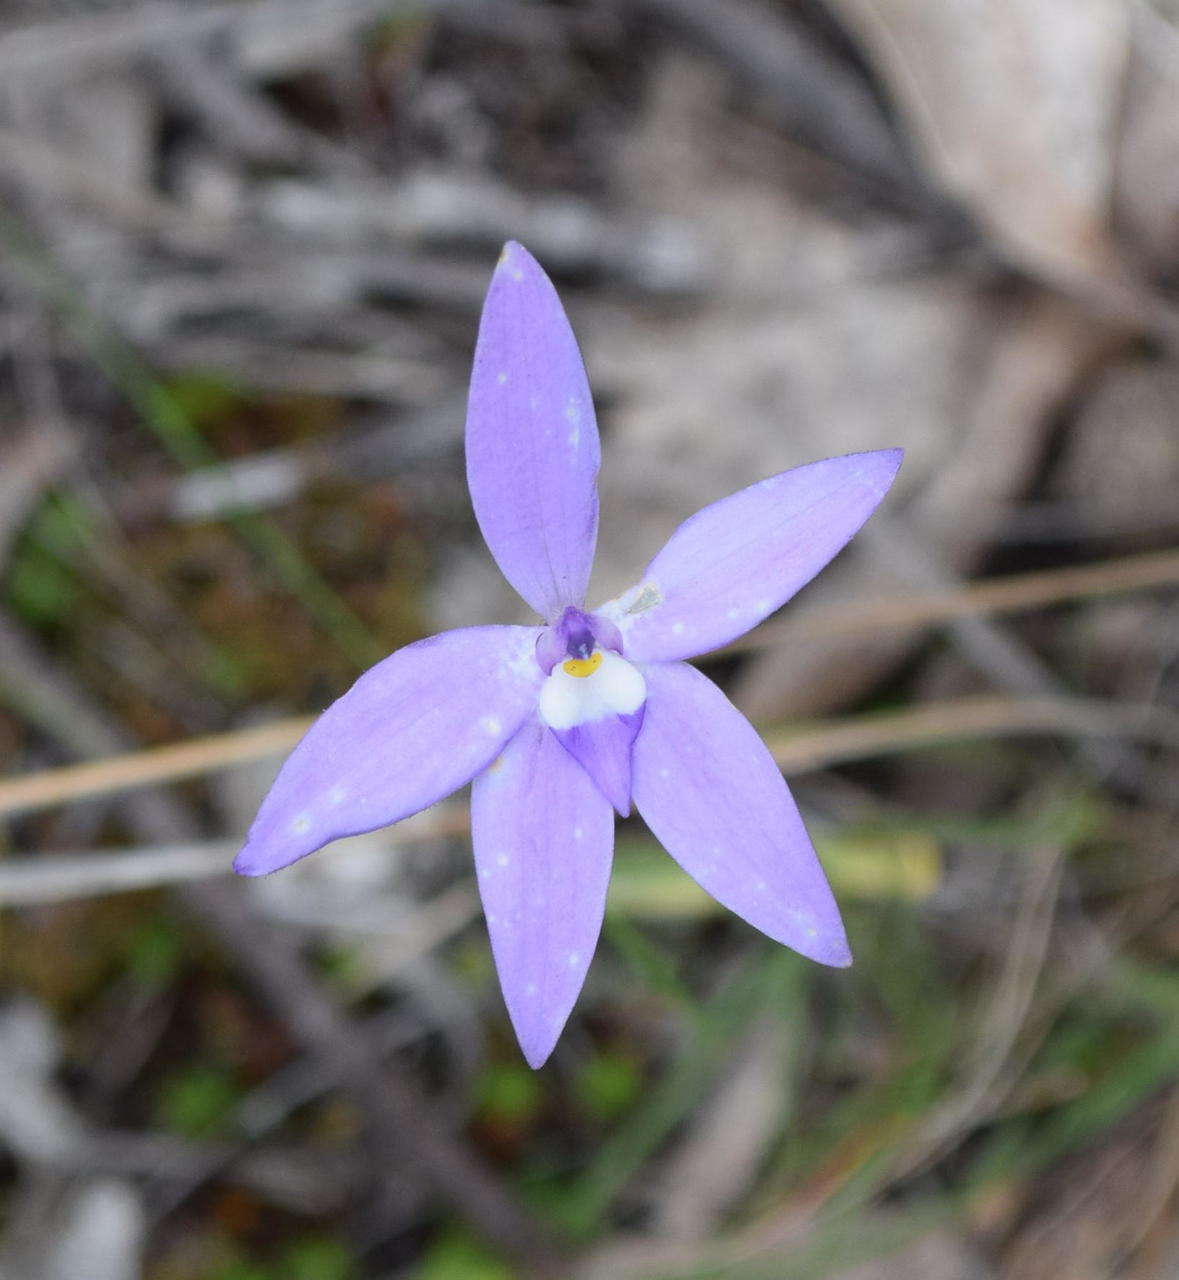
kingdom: Plantae
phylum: Tracheophyta
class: Liliopsida
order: Asparagales
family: Orchidaceae
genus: Caladenia
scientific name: Caladenia major
